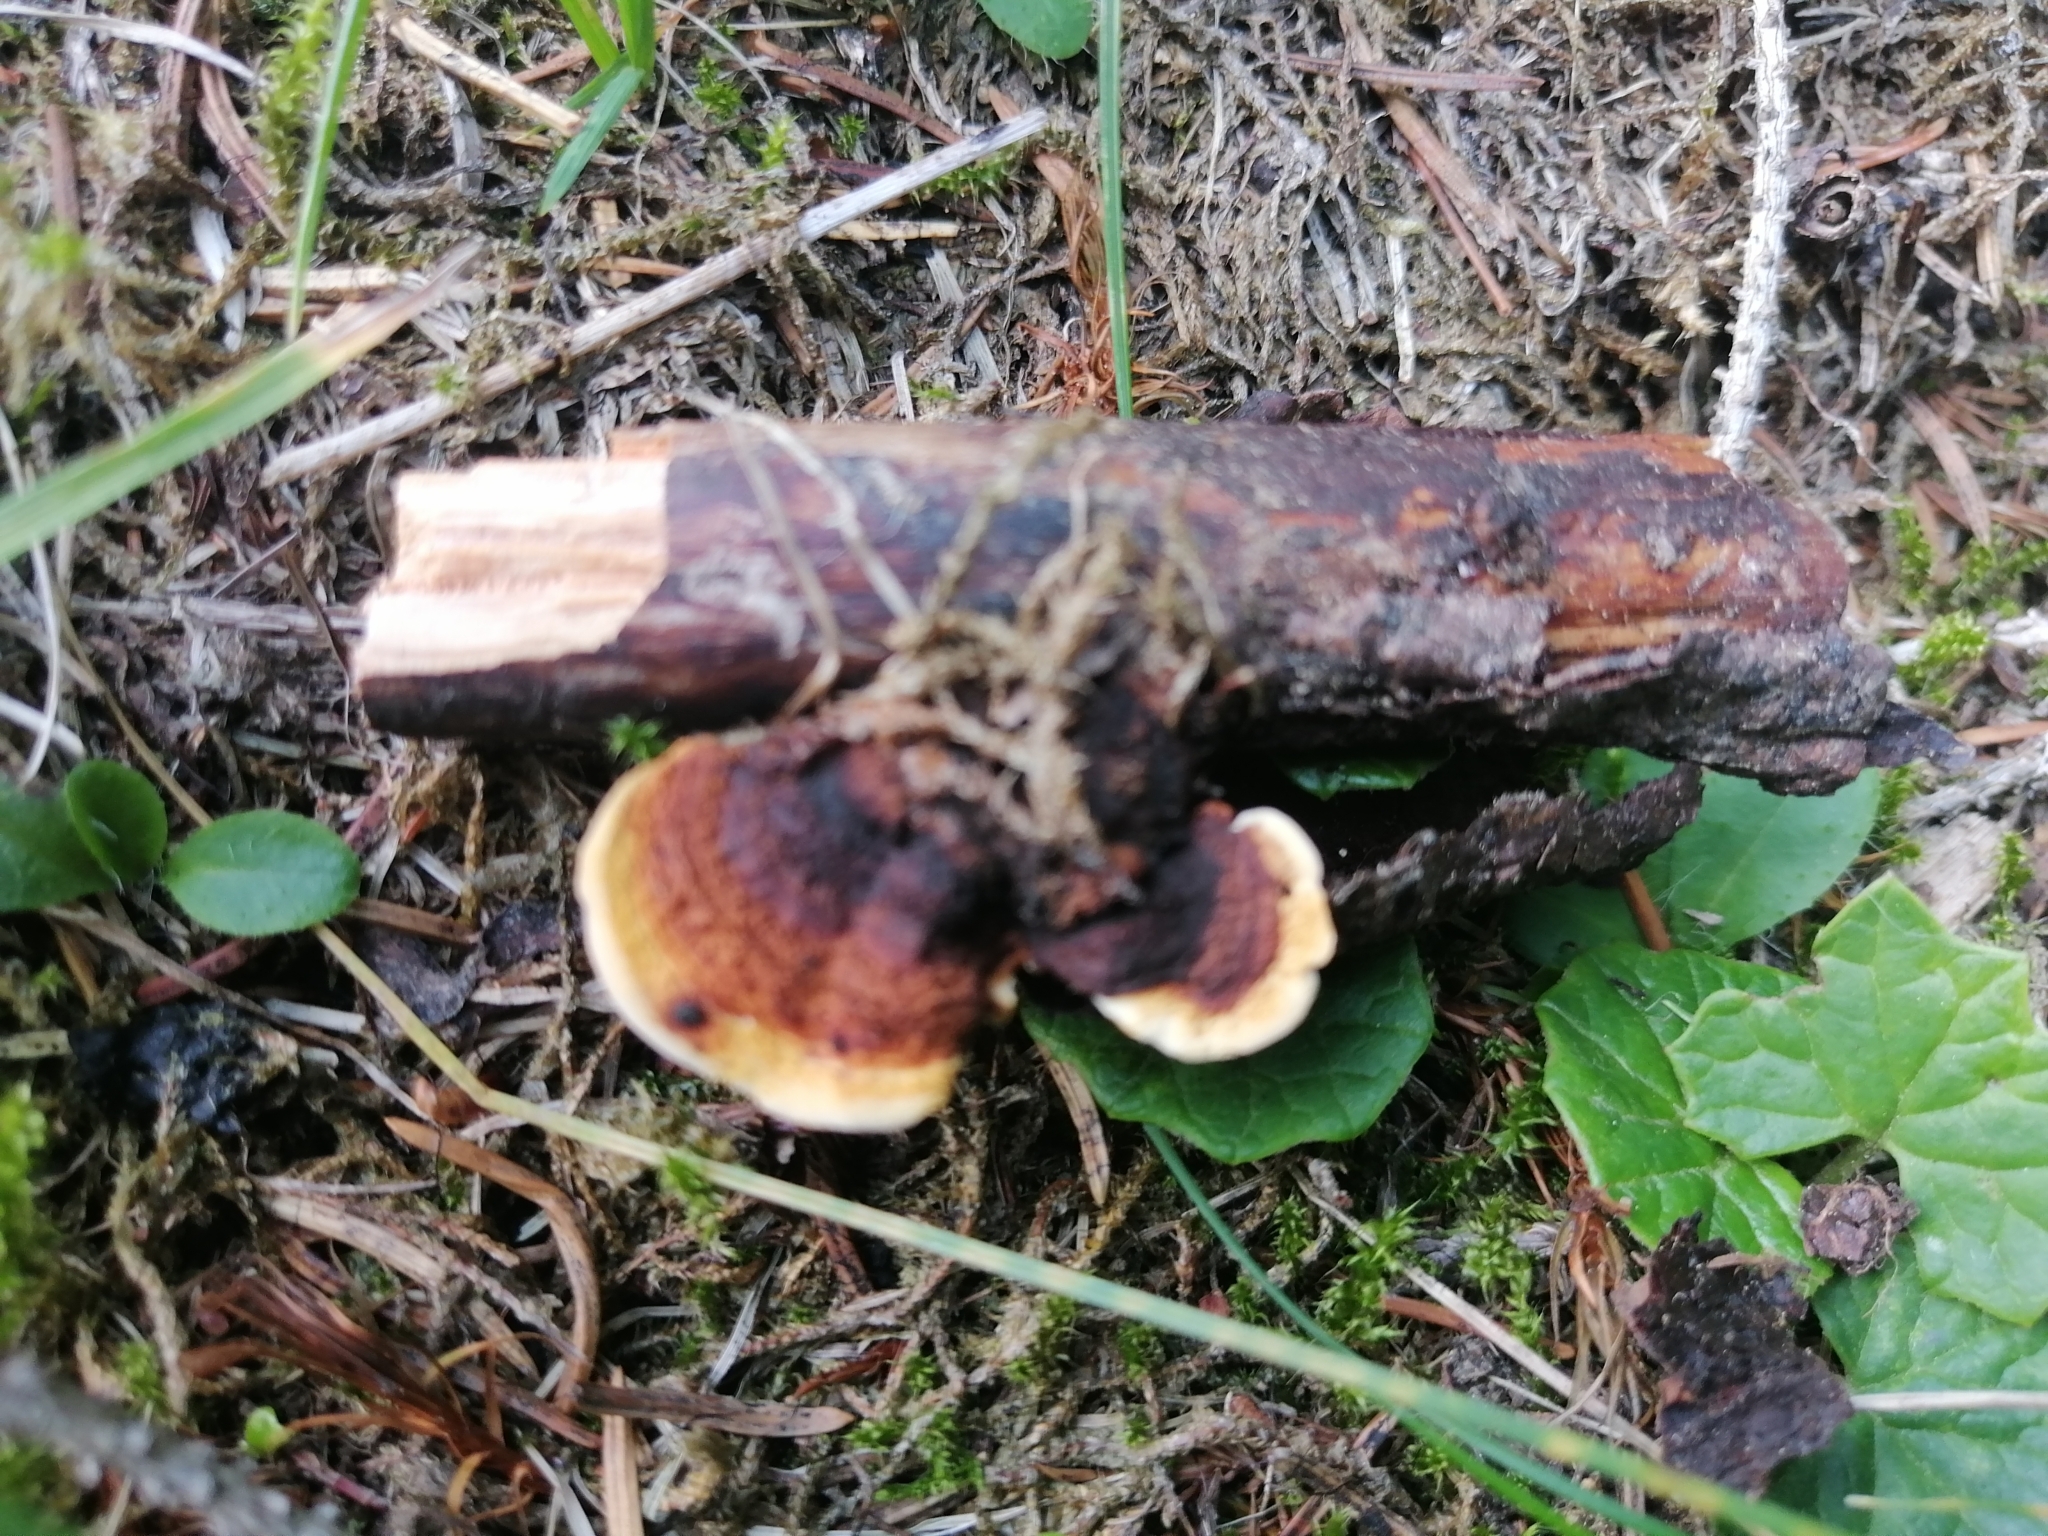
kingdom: Fungi
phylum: Basidiomycota
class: Agaricomycetes
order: Gloeophyllales
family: Gloeophyllaceae
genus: Gloeophyllum
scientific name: Gloeophyllum sepiarium
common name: Conifer mazegill
